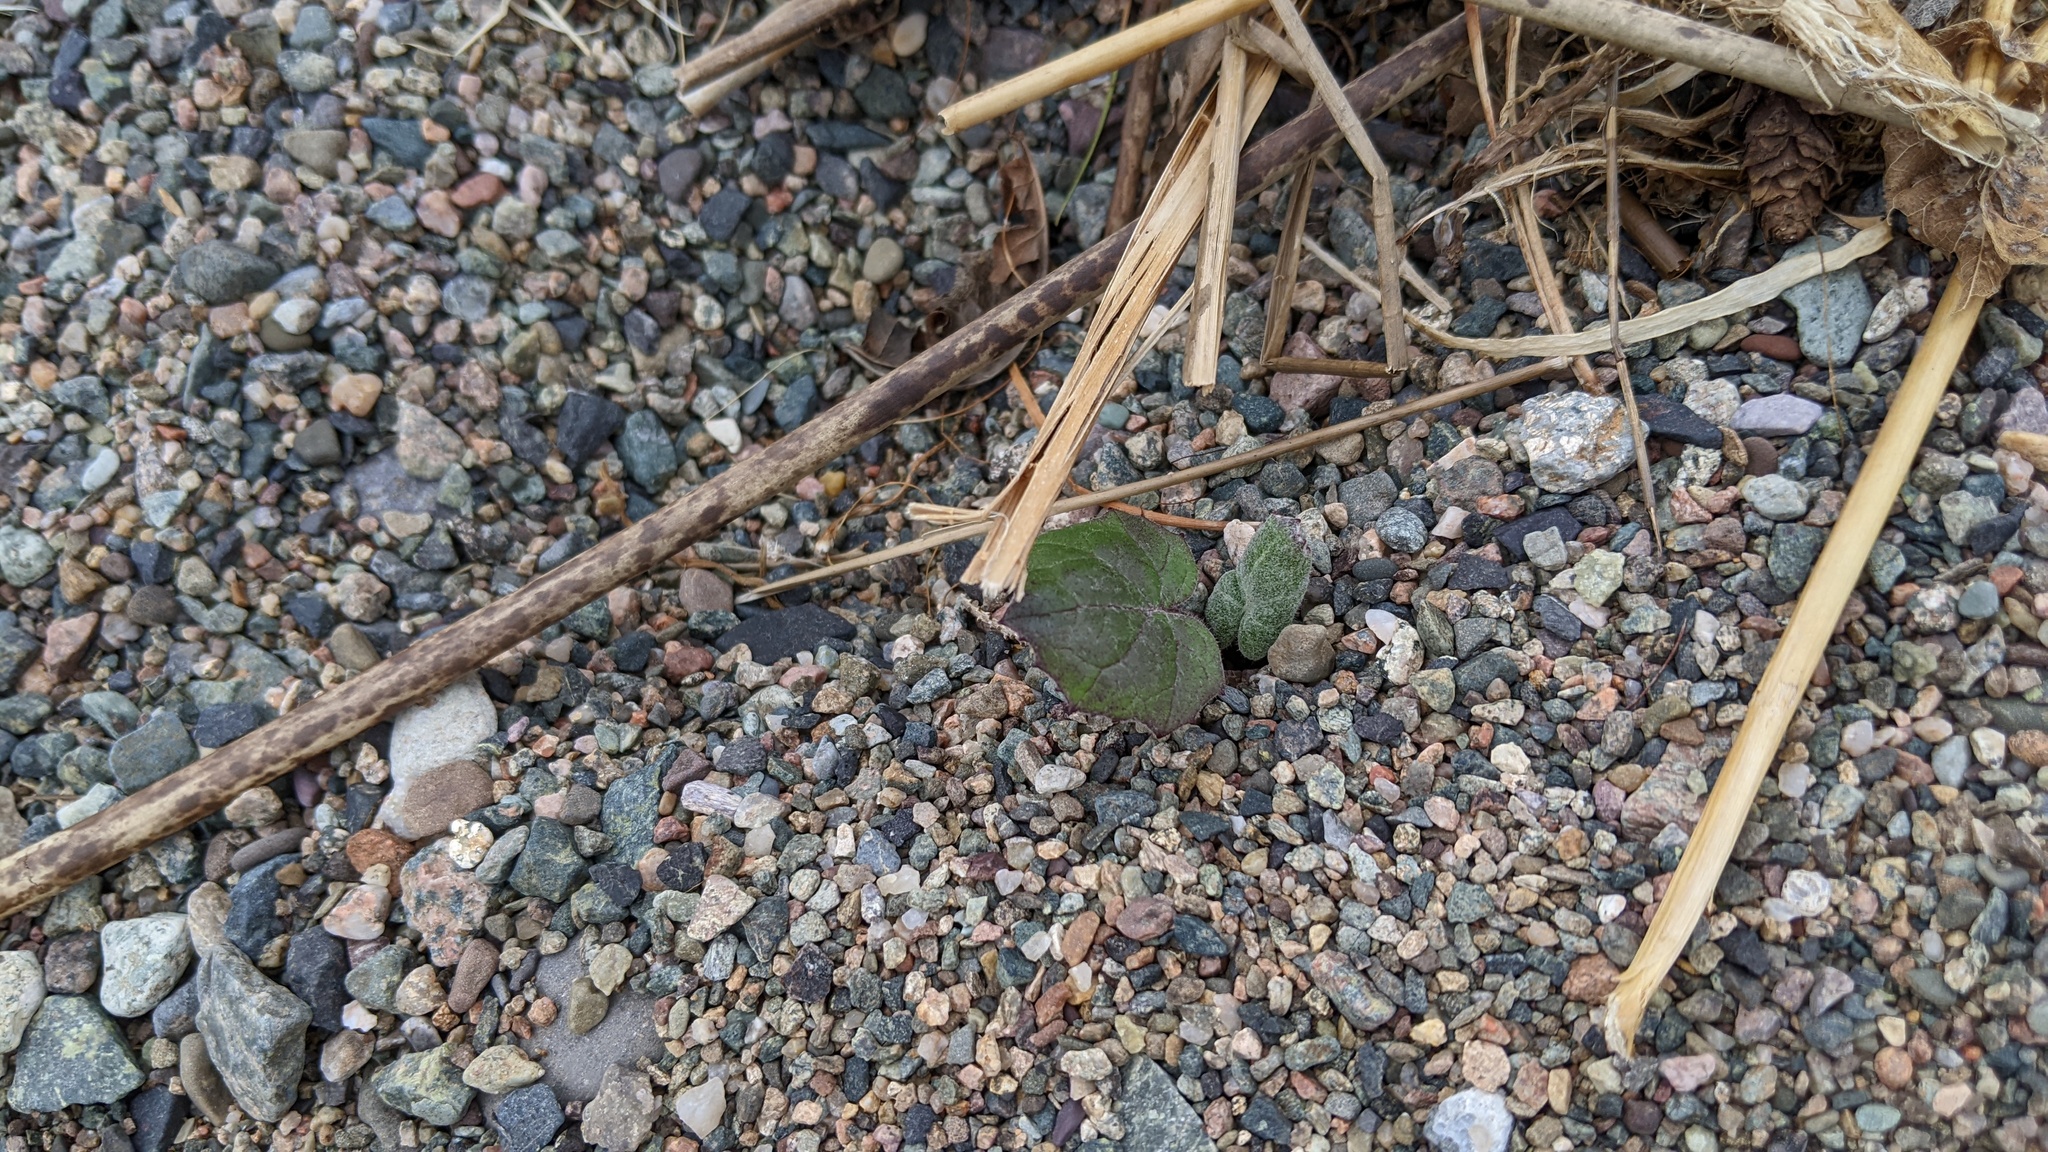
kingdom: Plantae
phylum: Tracheophyta
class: Magnoliopsida
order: Asterales
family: Asteraceae
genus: Tussilago
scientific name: Tussilago farfara
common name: Coltsfoot
